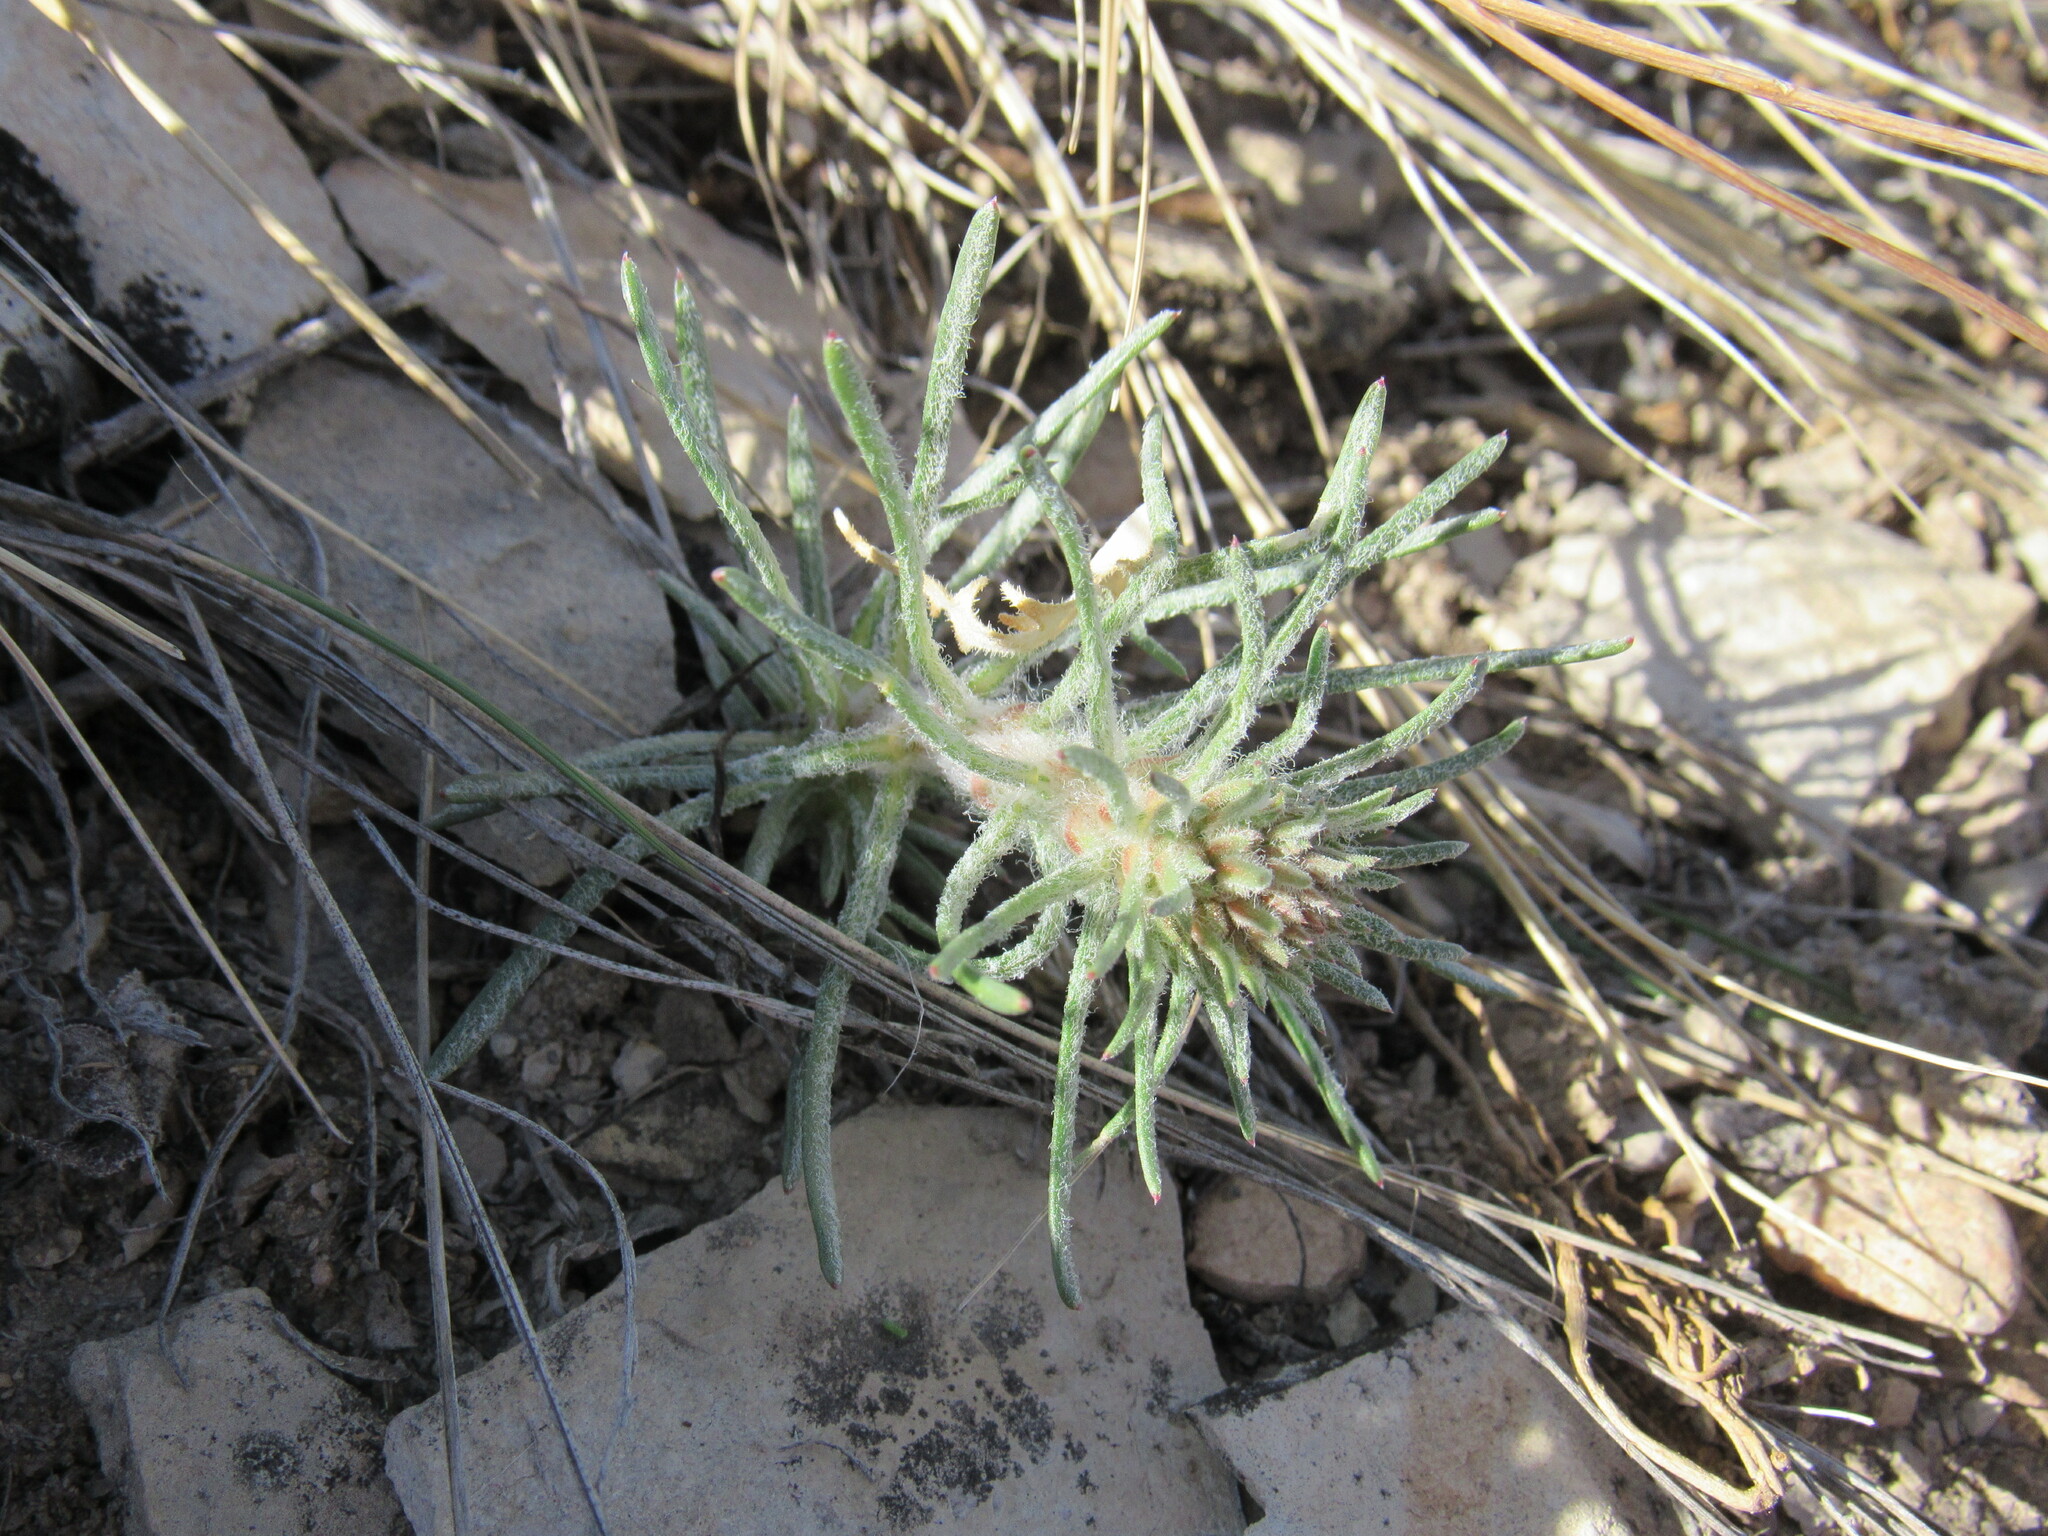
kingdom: Plantae
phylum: Tracheophyta
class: Magnoliopsida
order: Ericales
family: Polemoniaceae
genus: Ipomopsis
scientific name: Ipomopsis spicata
